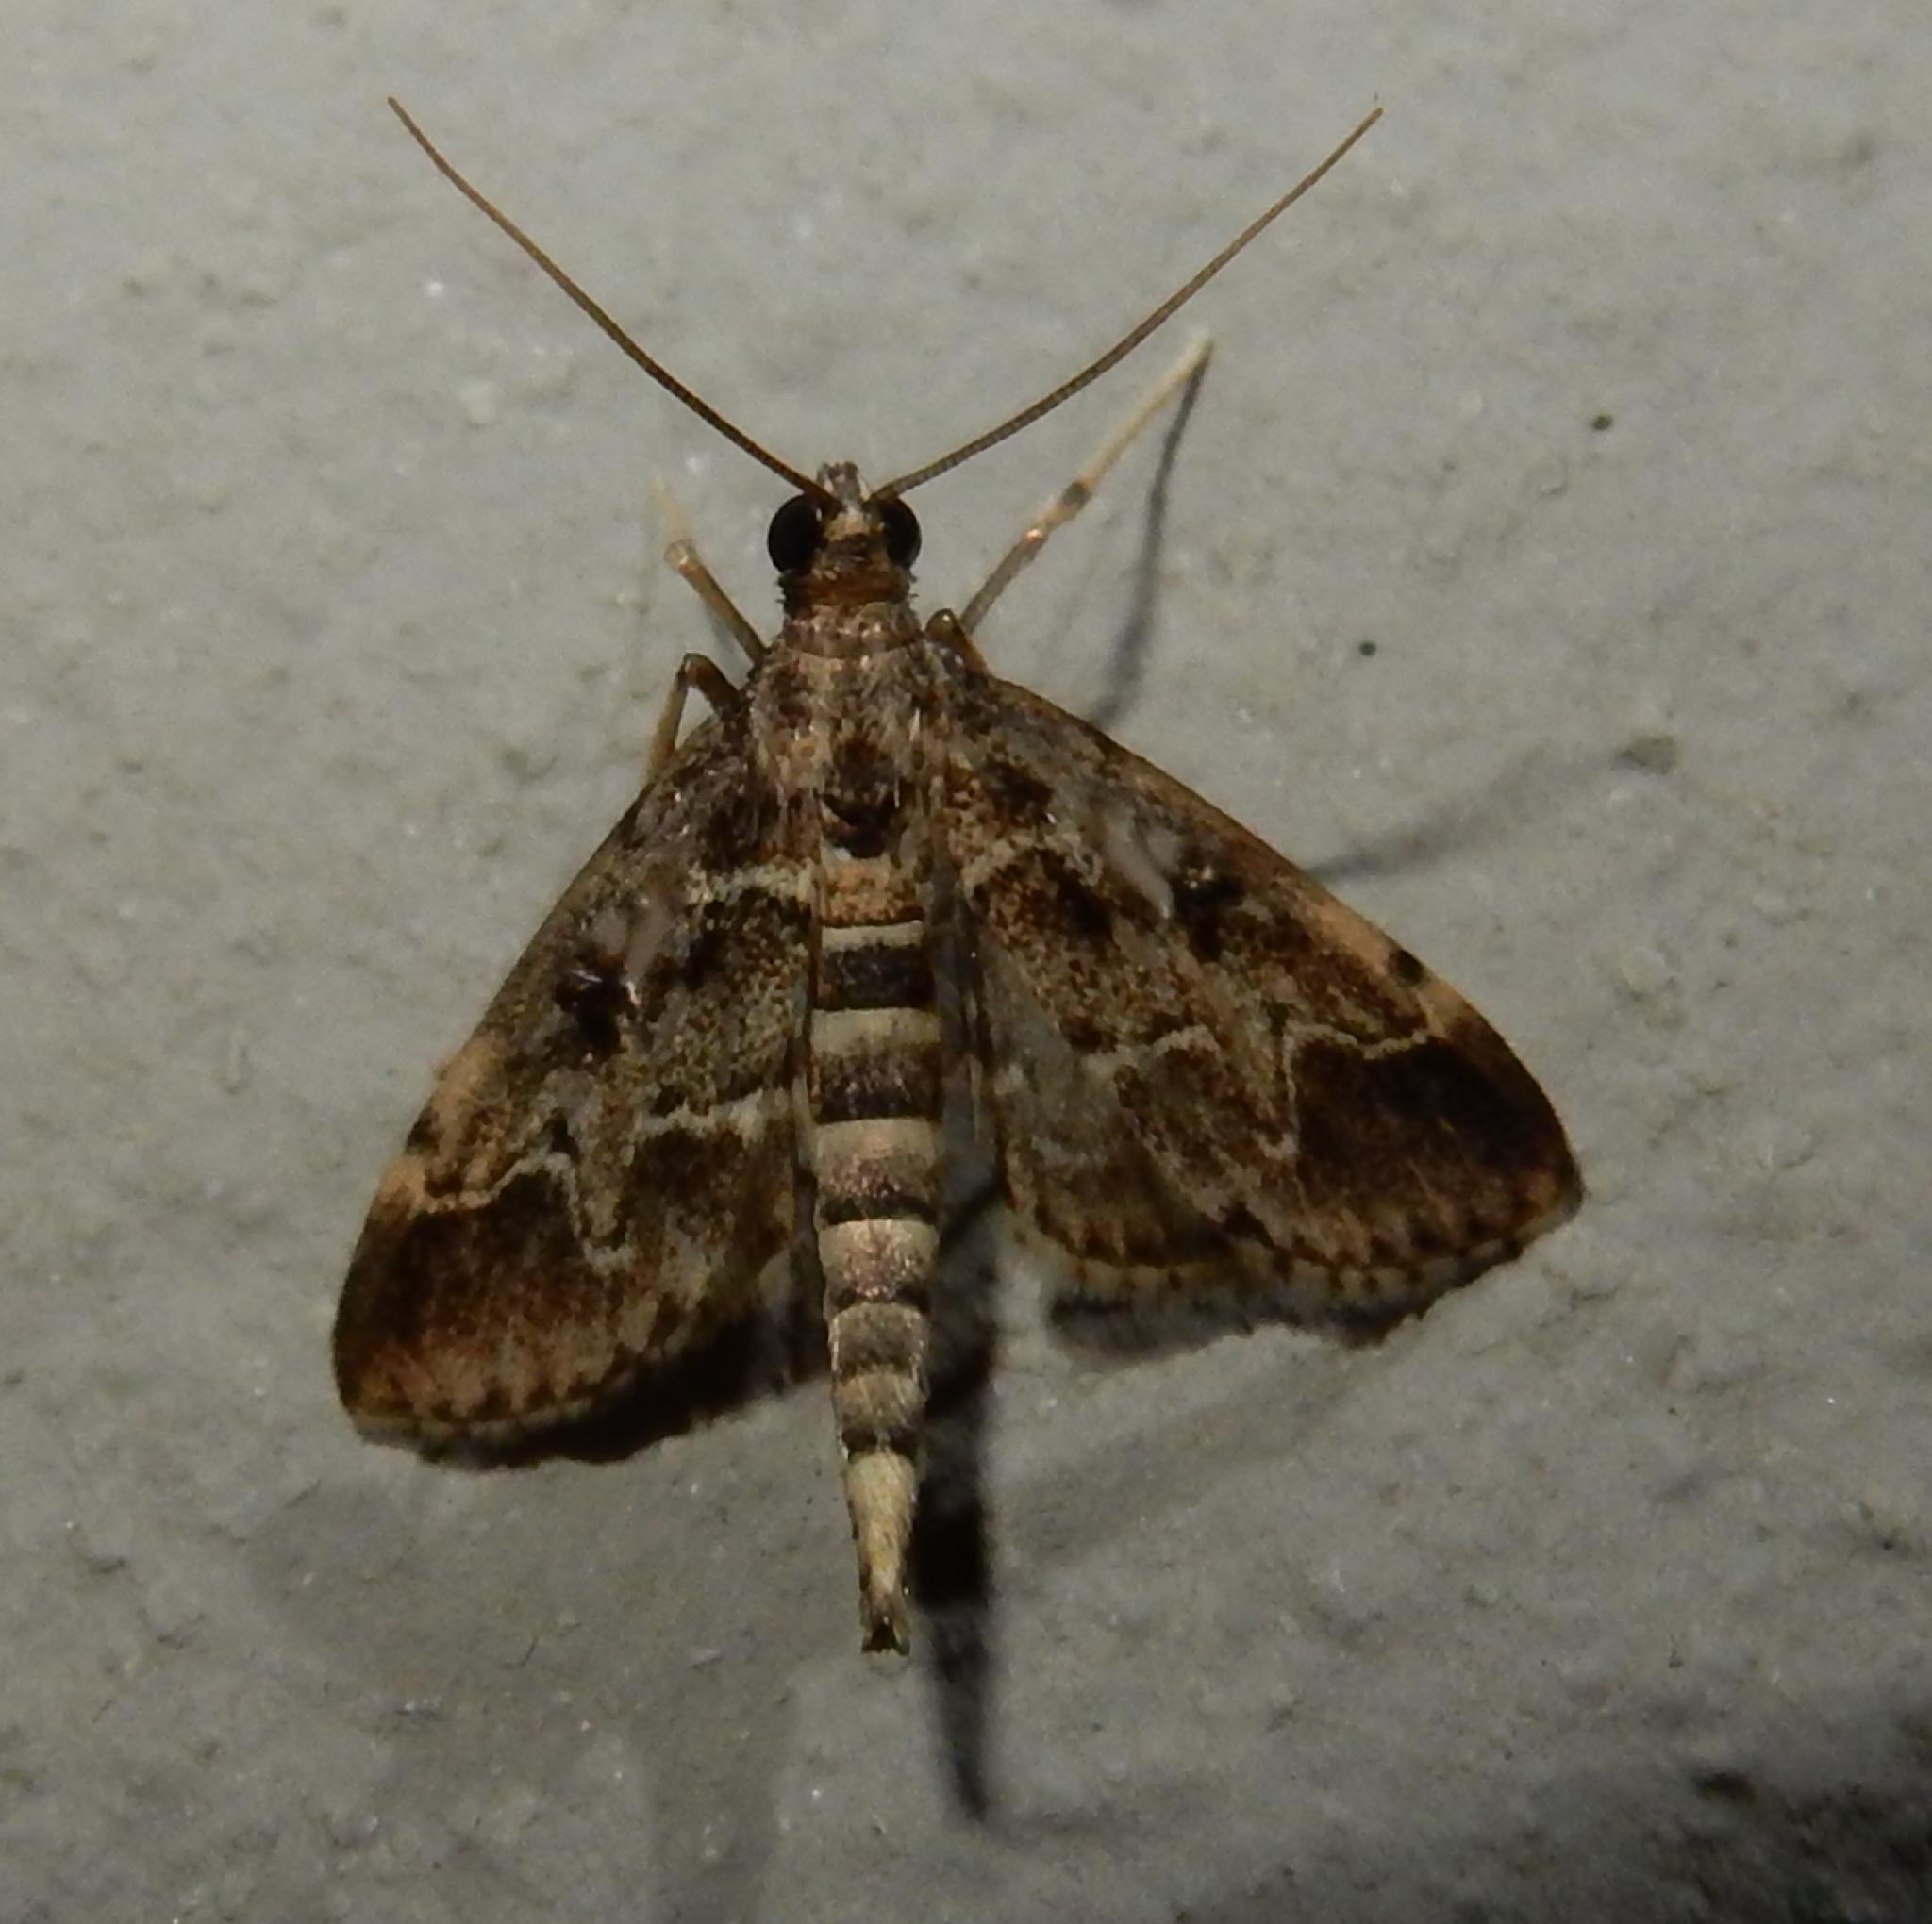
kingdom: Animalia
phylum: Arthropoda
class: Insecta
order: Lepidoptera
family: Crambidae
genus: Duponchelia
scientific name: Duponchelia fovealis
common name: Crambid moth
